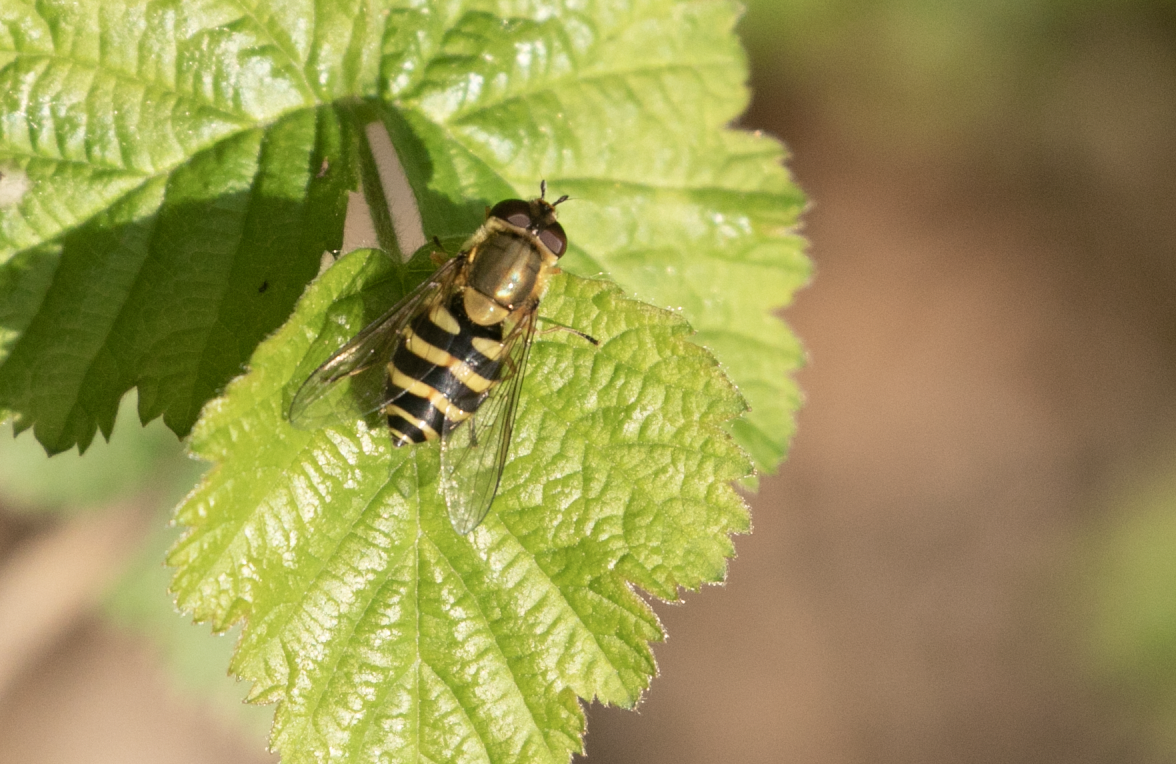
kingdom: Animalia
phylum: Arthropoda
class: Insecta
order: Diptera
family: Syrphidae
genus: Syrphus
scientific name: Syrphus
